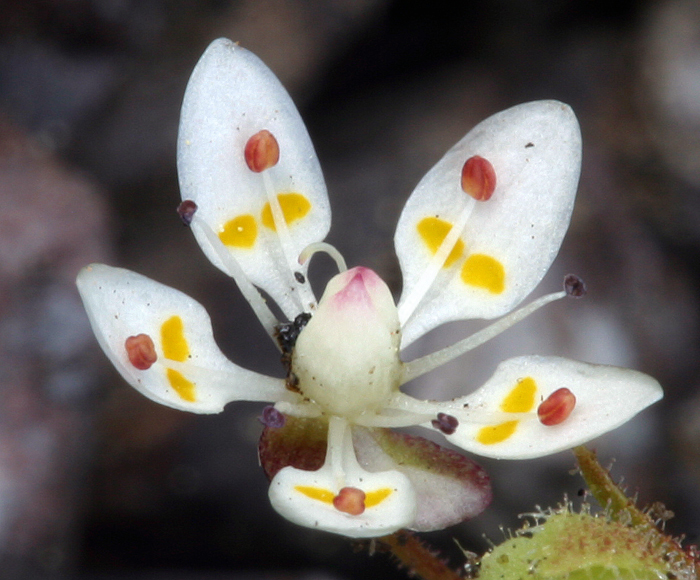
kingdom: Plantae
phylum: Tracheophyta
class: Magnoliopsida
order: Saxifragales
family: Saxifragaceae
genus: Micranthes
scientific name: Micranthes bryophora
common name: Bud saxifrage
